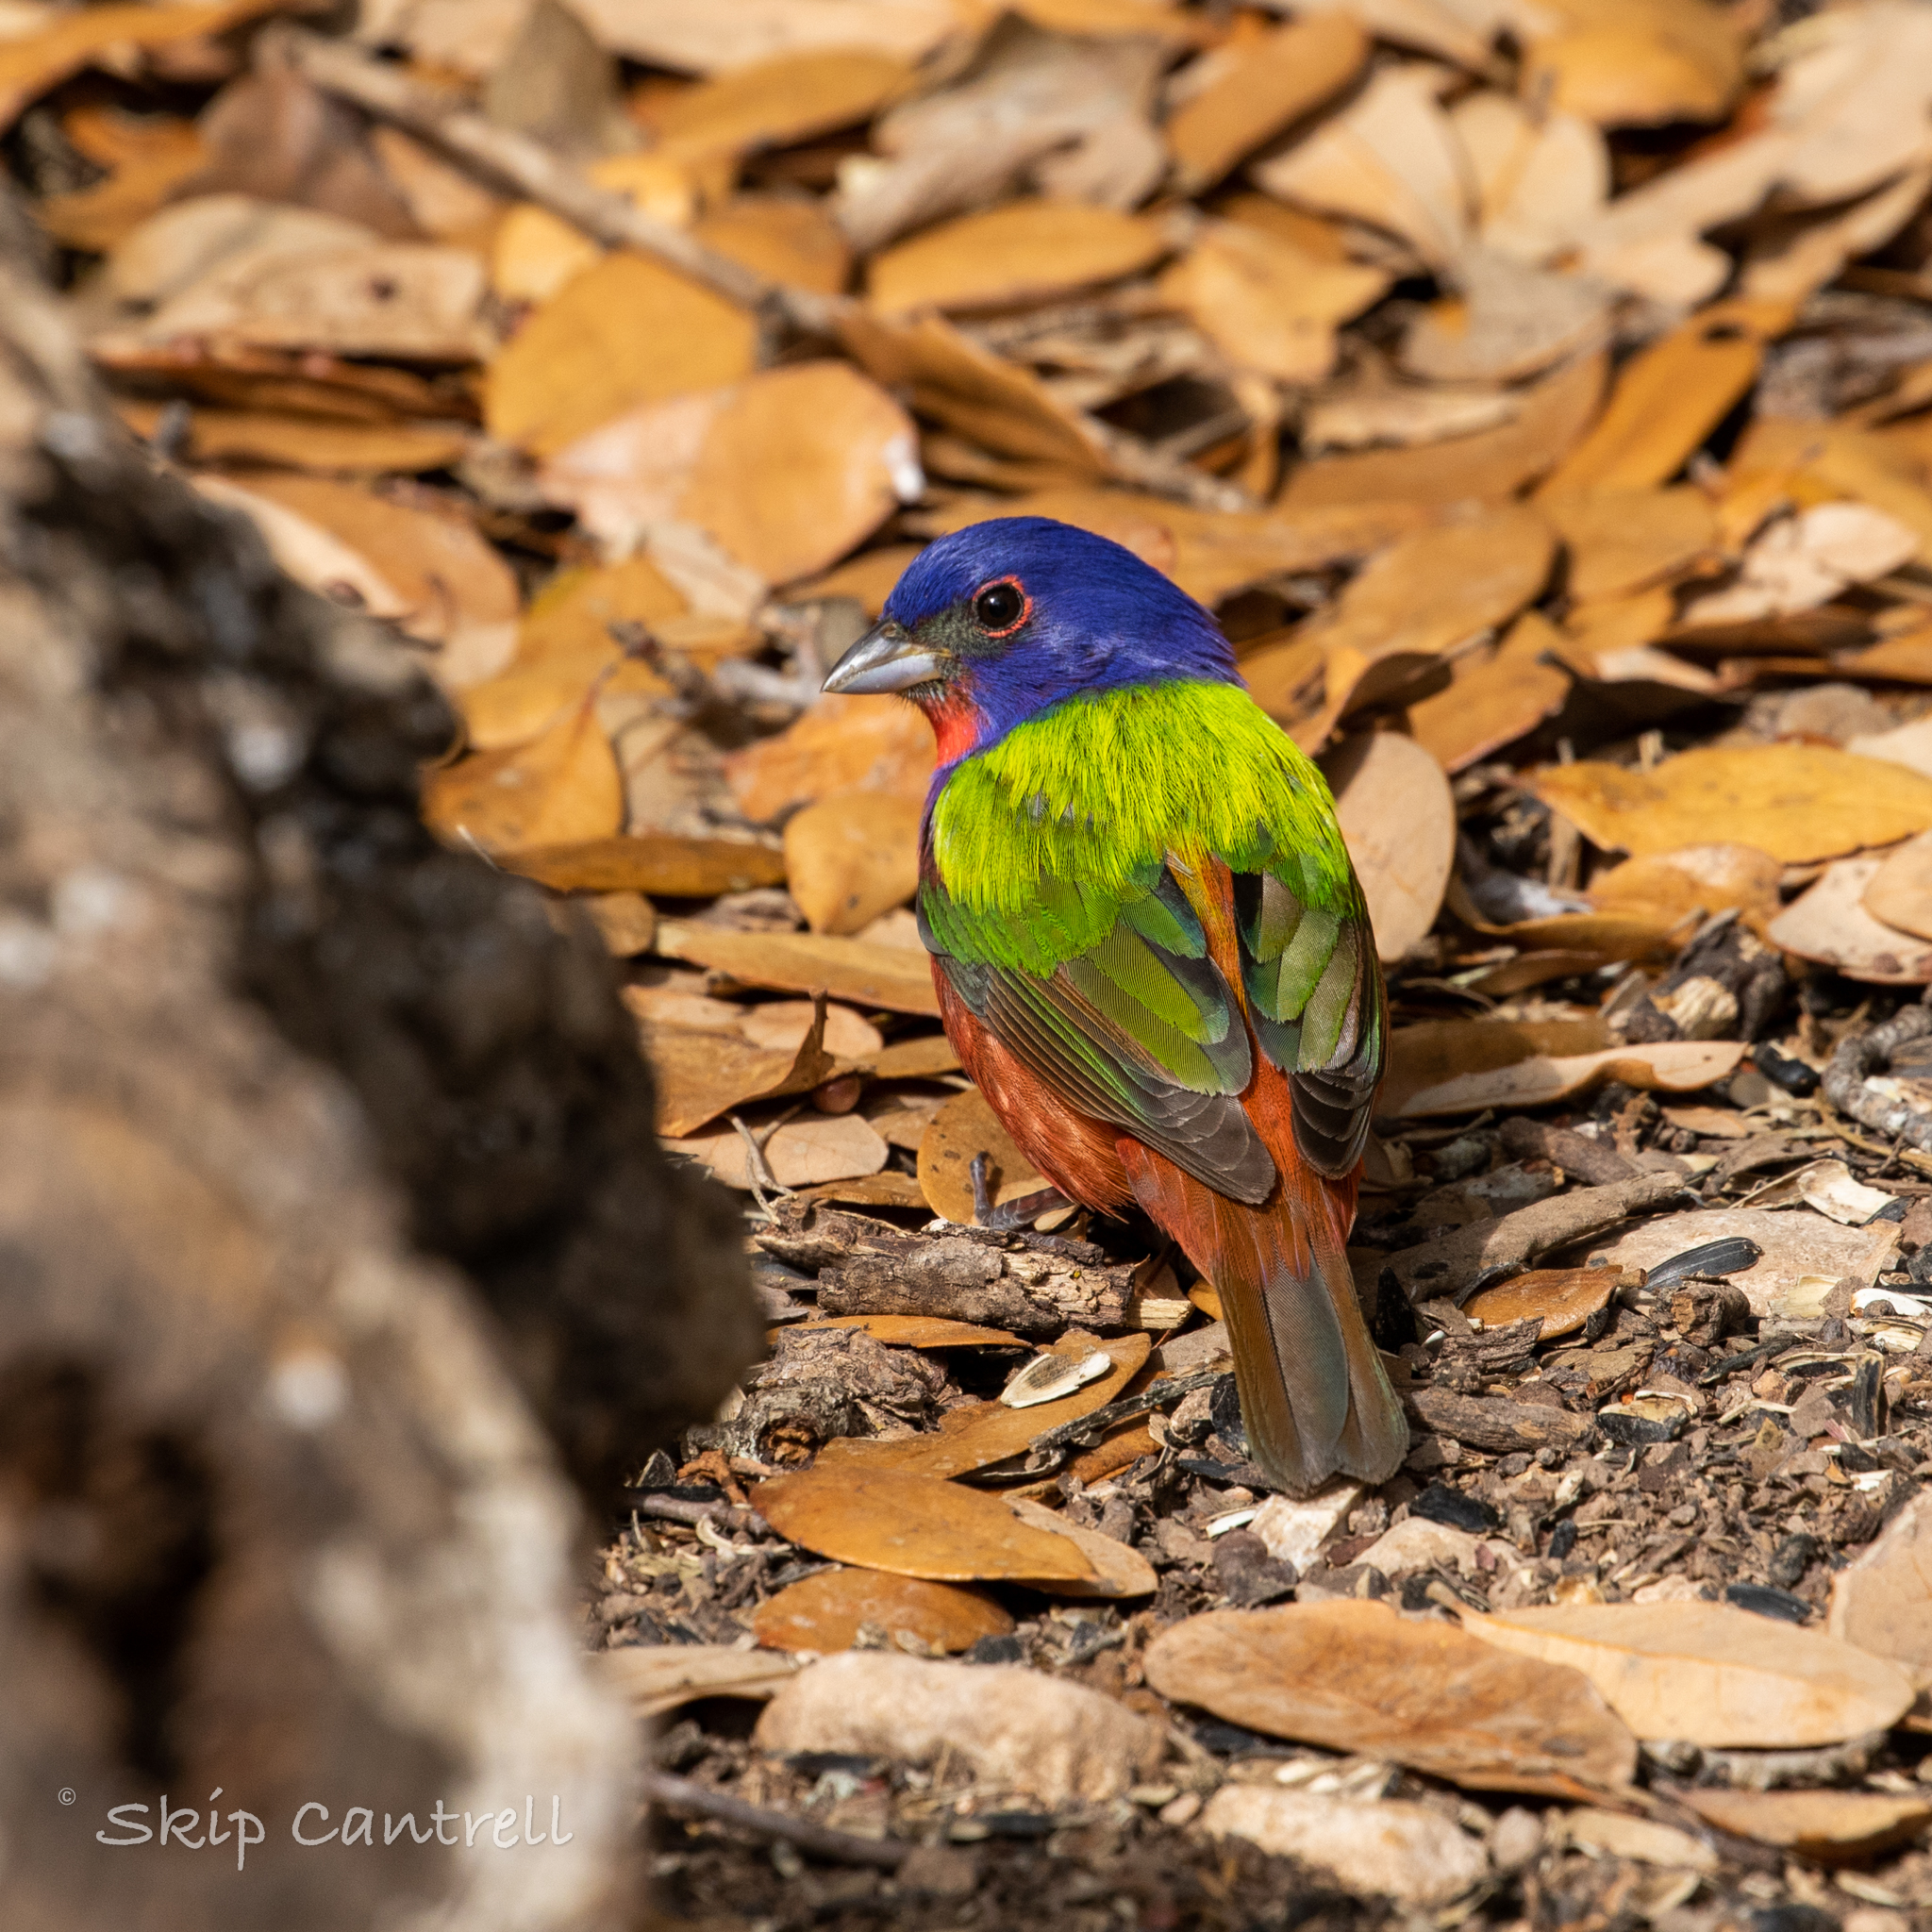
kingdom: Animalia
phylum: Chordata
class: Aves
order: Passeriformes
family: Cardinalidae
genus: Passerina
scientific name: Passerina ciris
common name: Painted bunting
